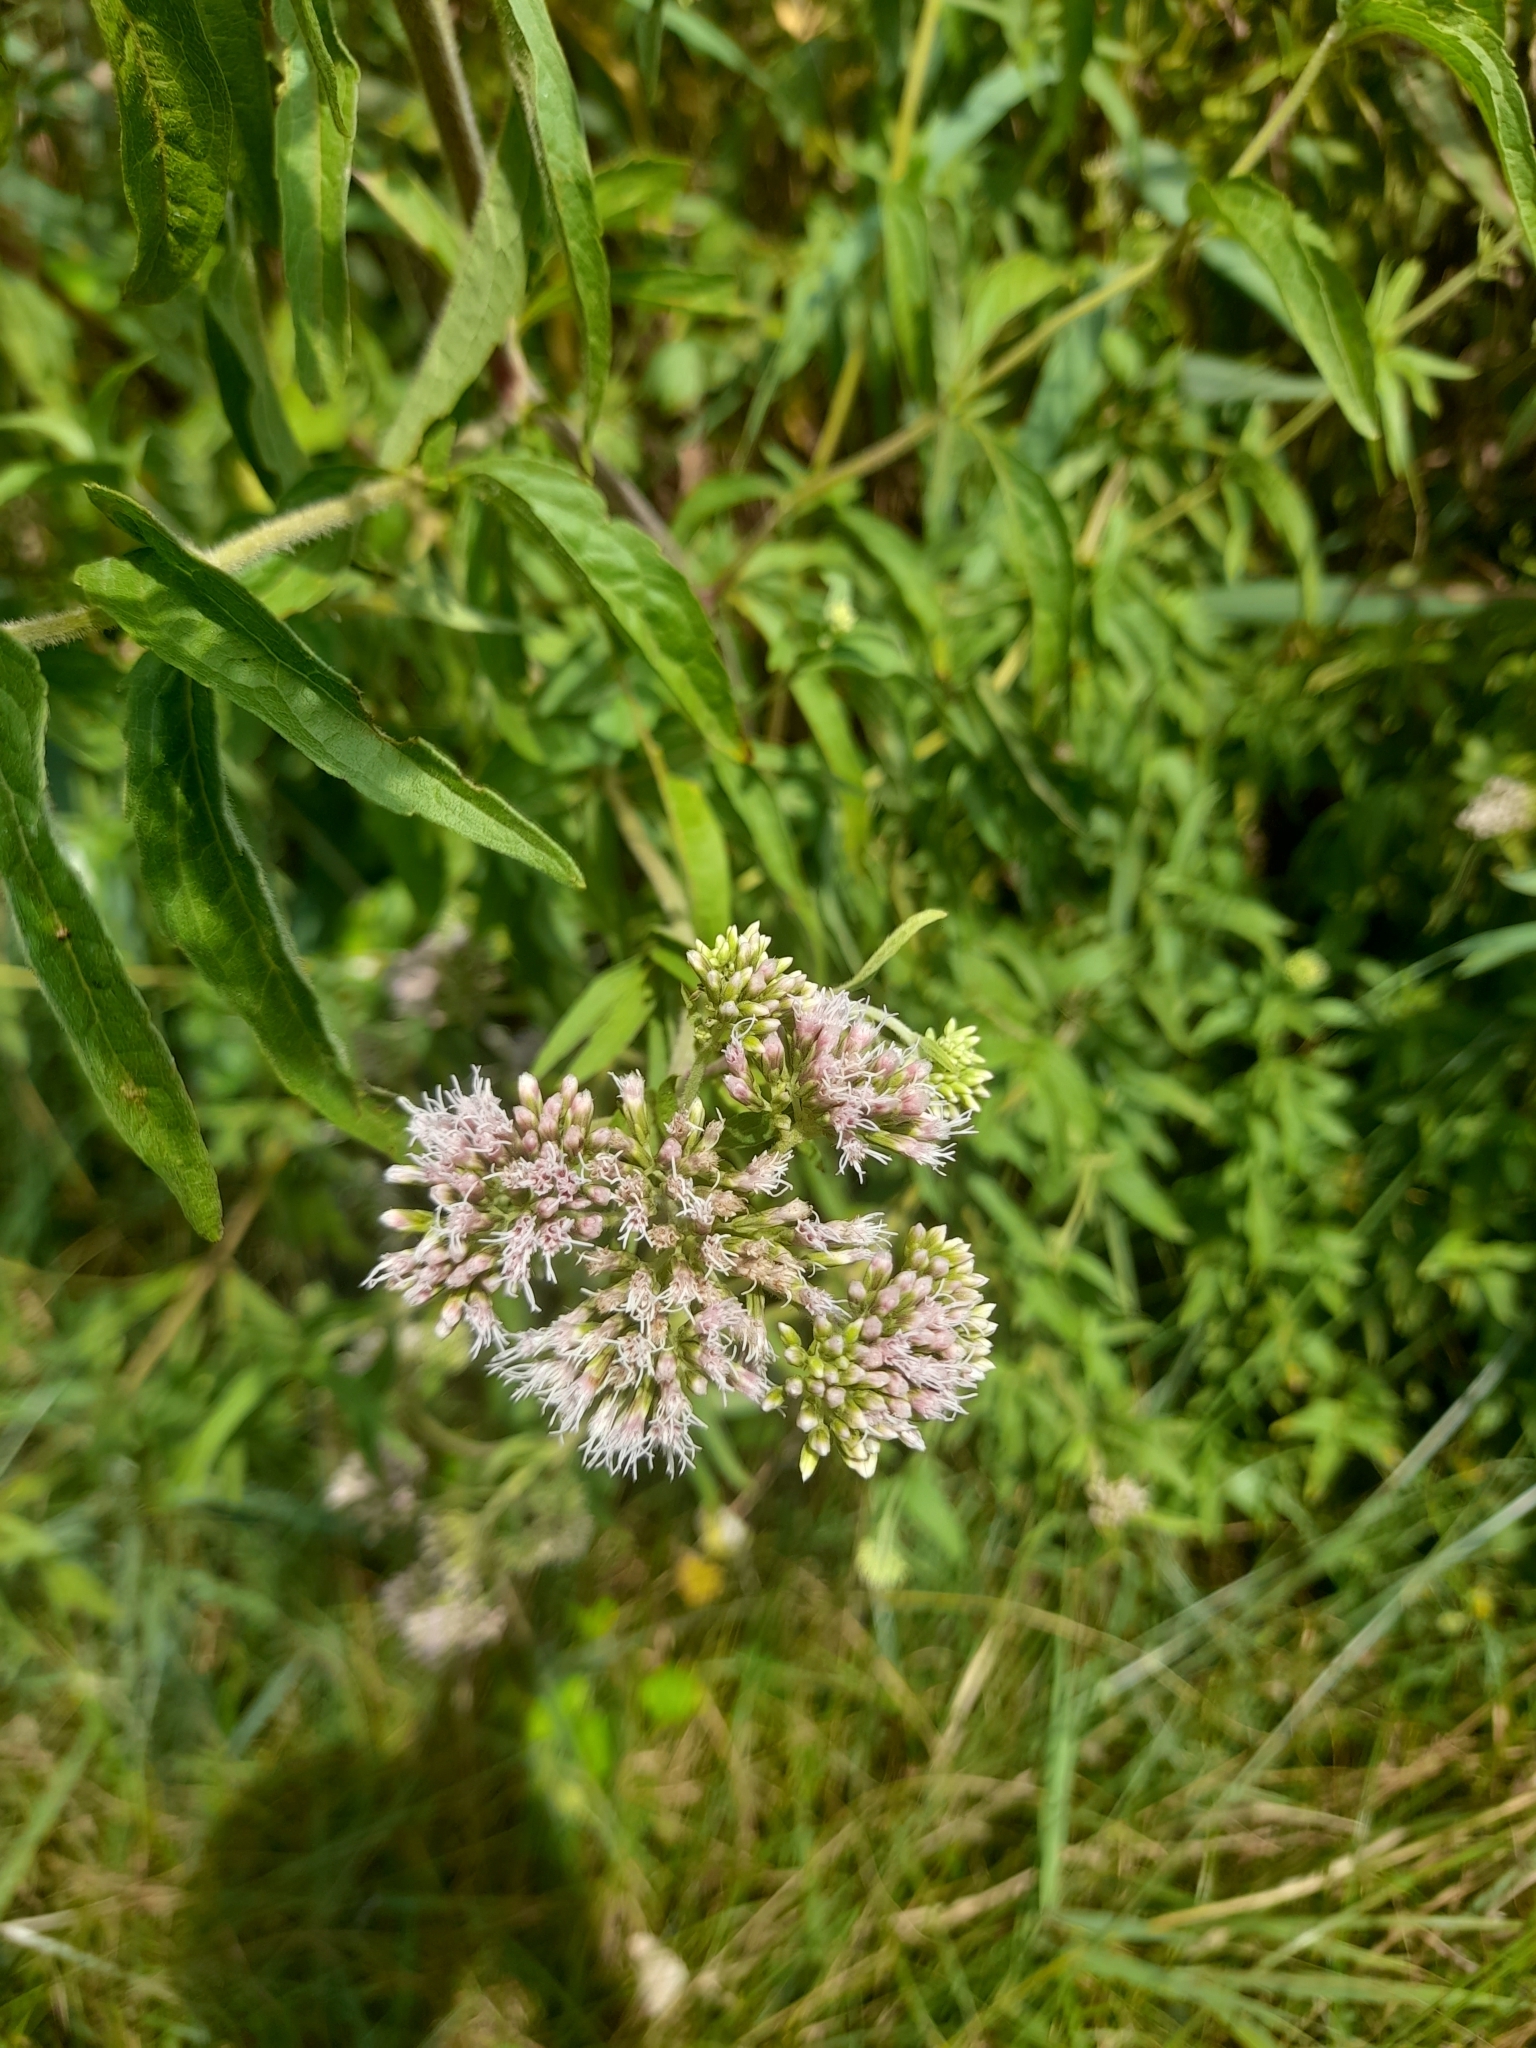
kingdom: Plantae
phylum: Tracheophyta
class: Magnoliopsida
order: Asterales
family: Asteraceae
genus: Eupatorium
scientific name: Eupatorium cannabinum
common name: Hemp-agrimony
